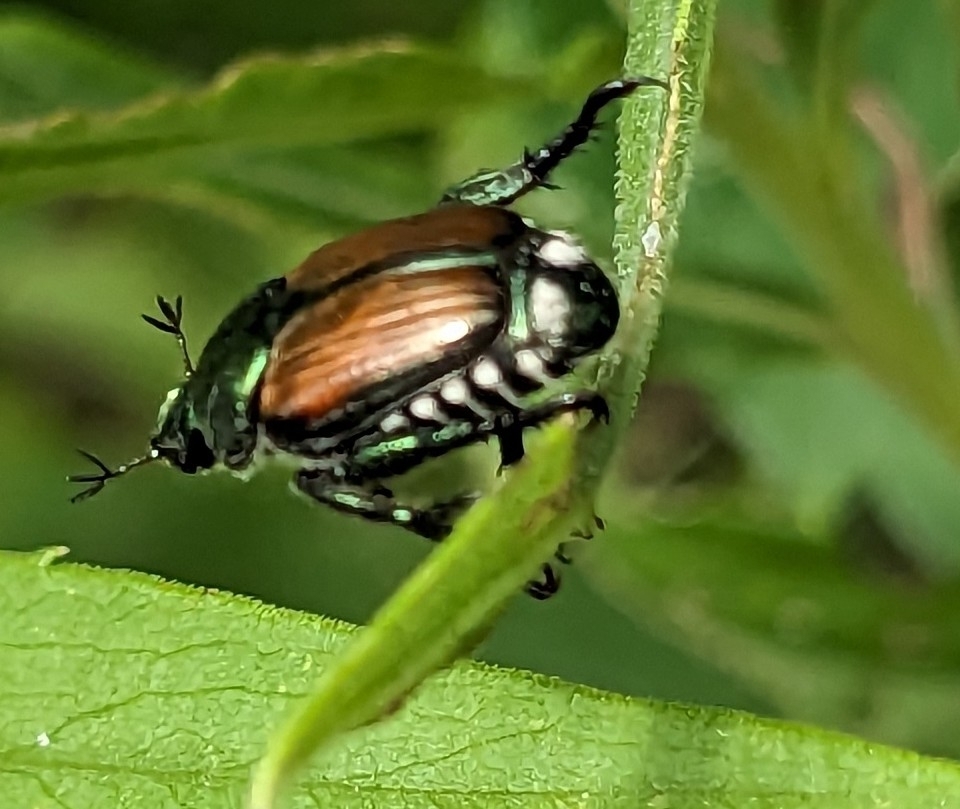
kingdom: Animalia
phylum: Arthropoda
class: Insecta
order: Coleoptera
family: Scarabaeidae
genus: Popillia
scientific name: Popillia japonica
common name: Japanese beetle
